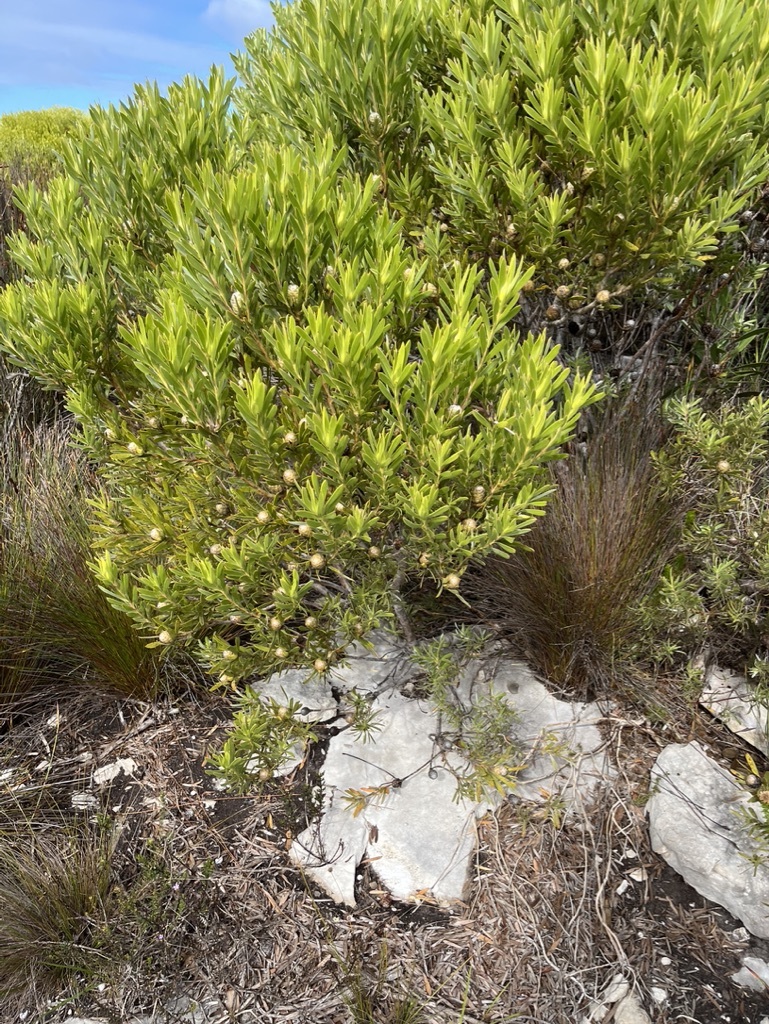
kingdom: Plantae
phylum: Tracheophyta
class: Magnoliopsida
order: Proteales
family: Proteaceae
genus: Leucadendron
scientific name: Leucadendron meridianum
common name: Limestone conebush
